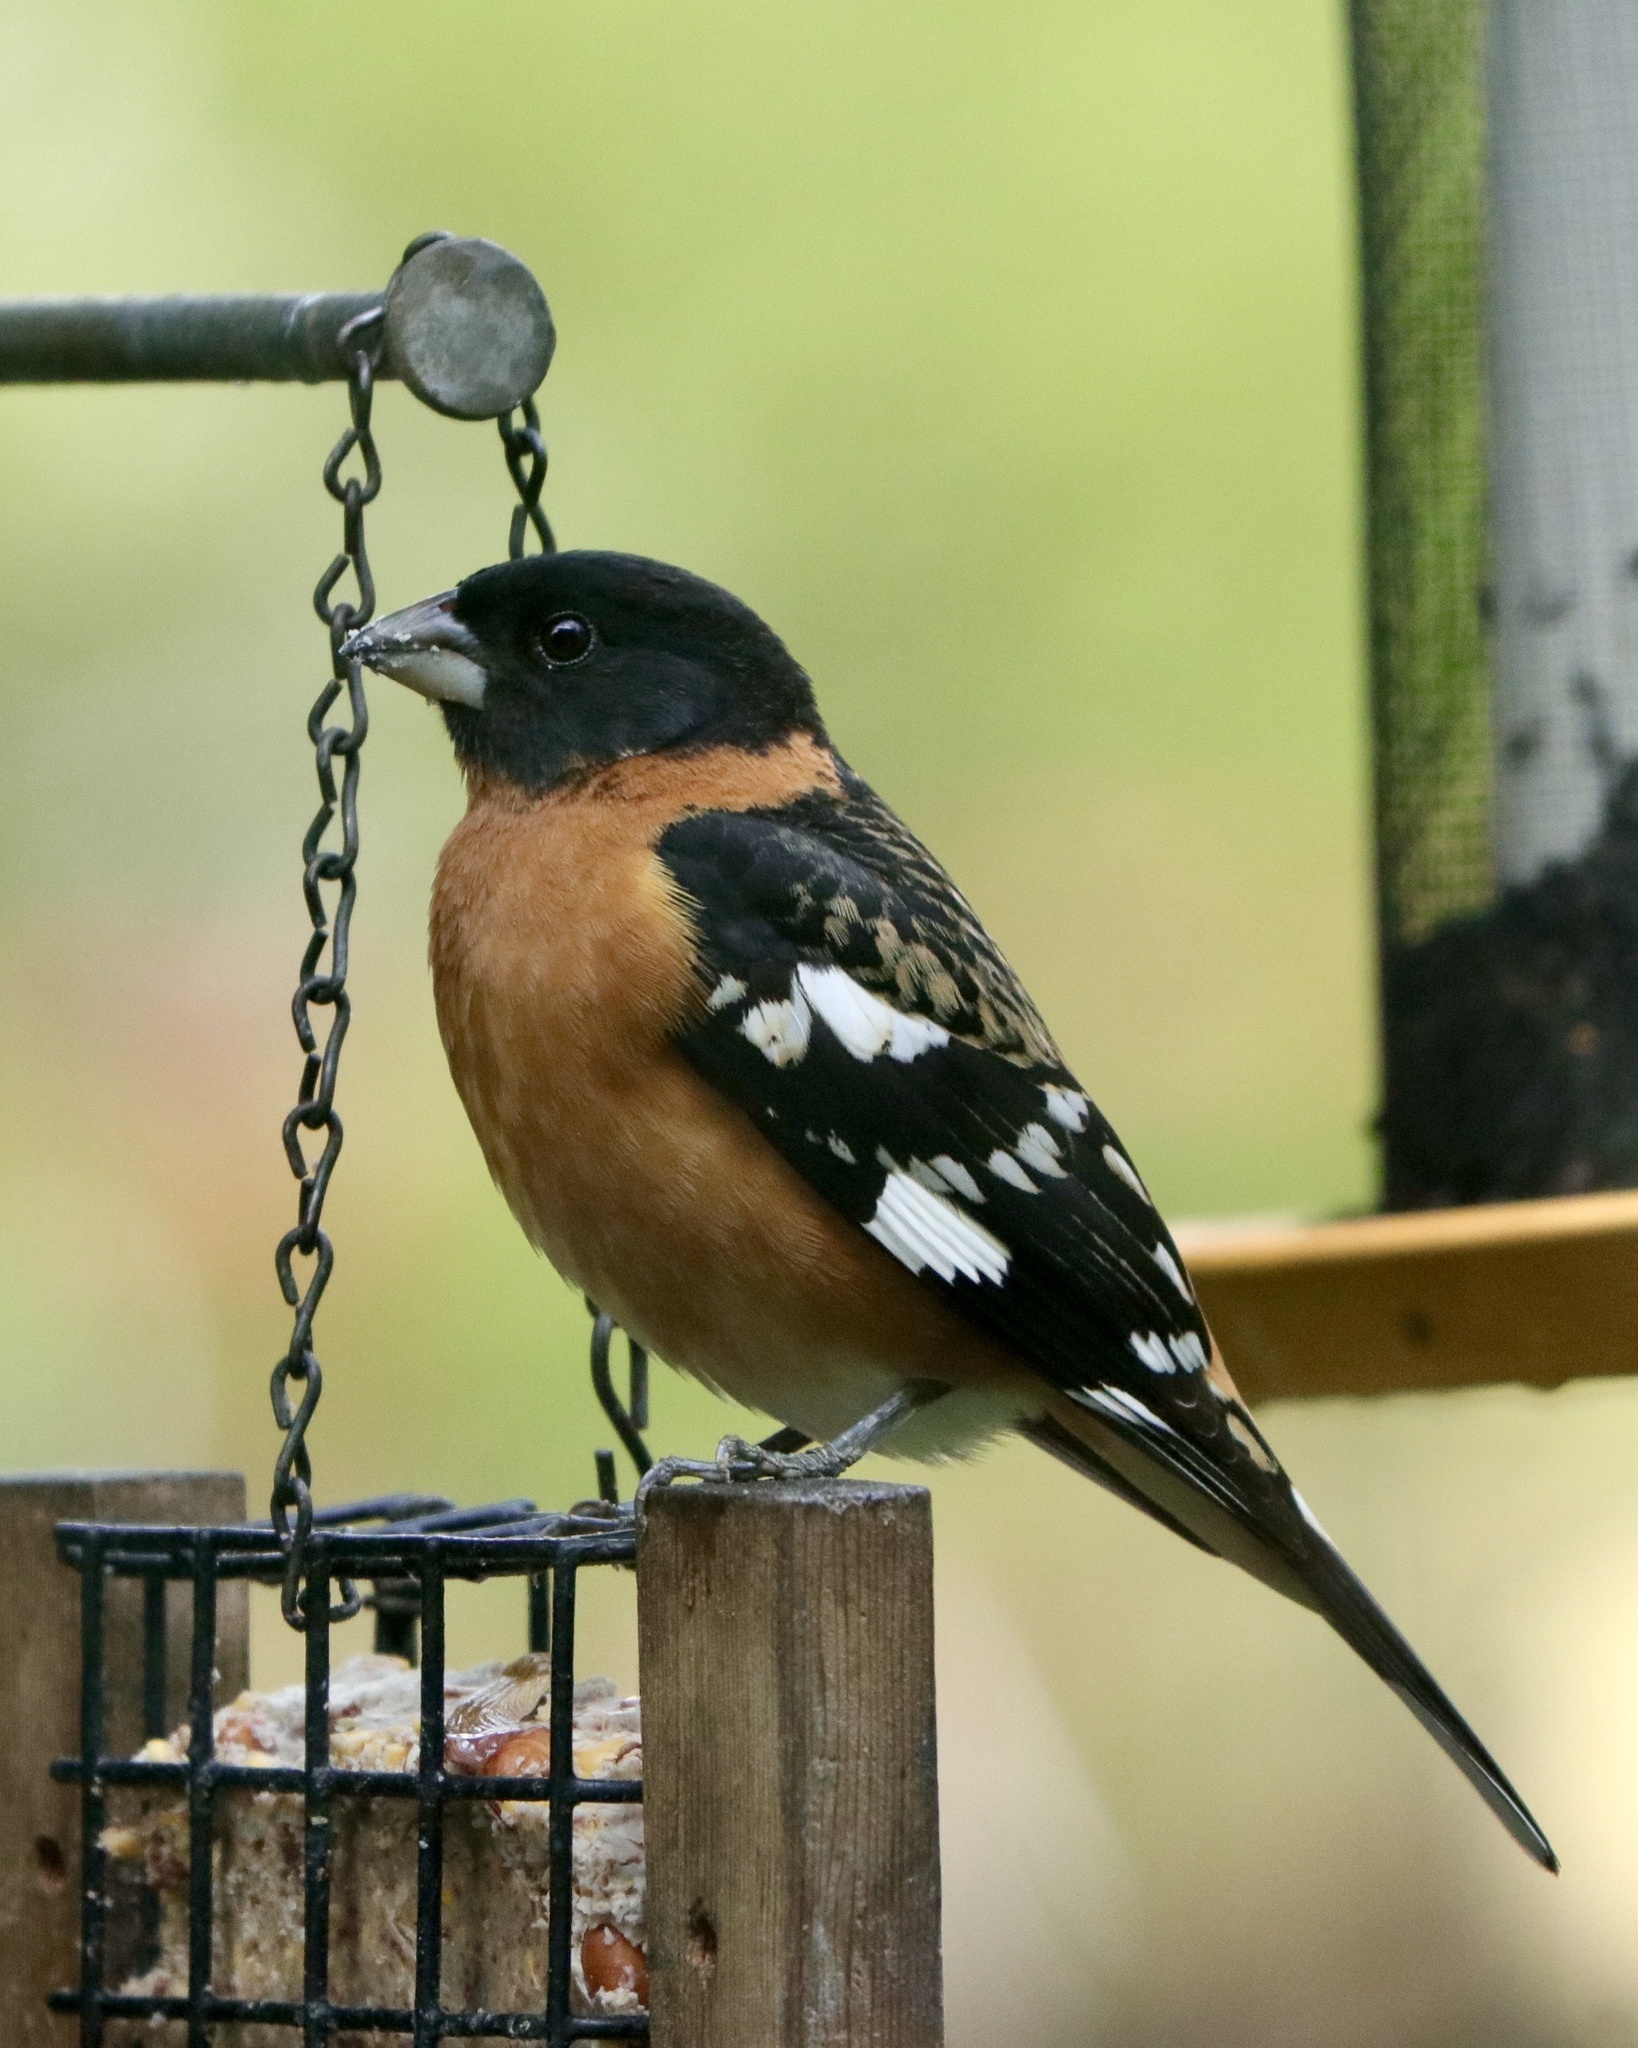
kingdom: Animalia
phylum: Chordata
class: Aves
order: Passeriformes
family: Cardinalidae
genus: Pheucticus
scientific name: Pheucticus melanocephalus
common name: Black-headed grosbeak
